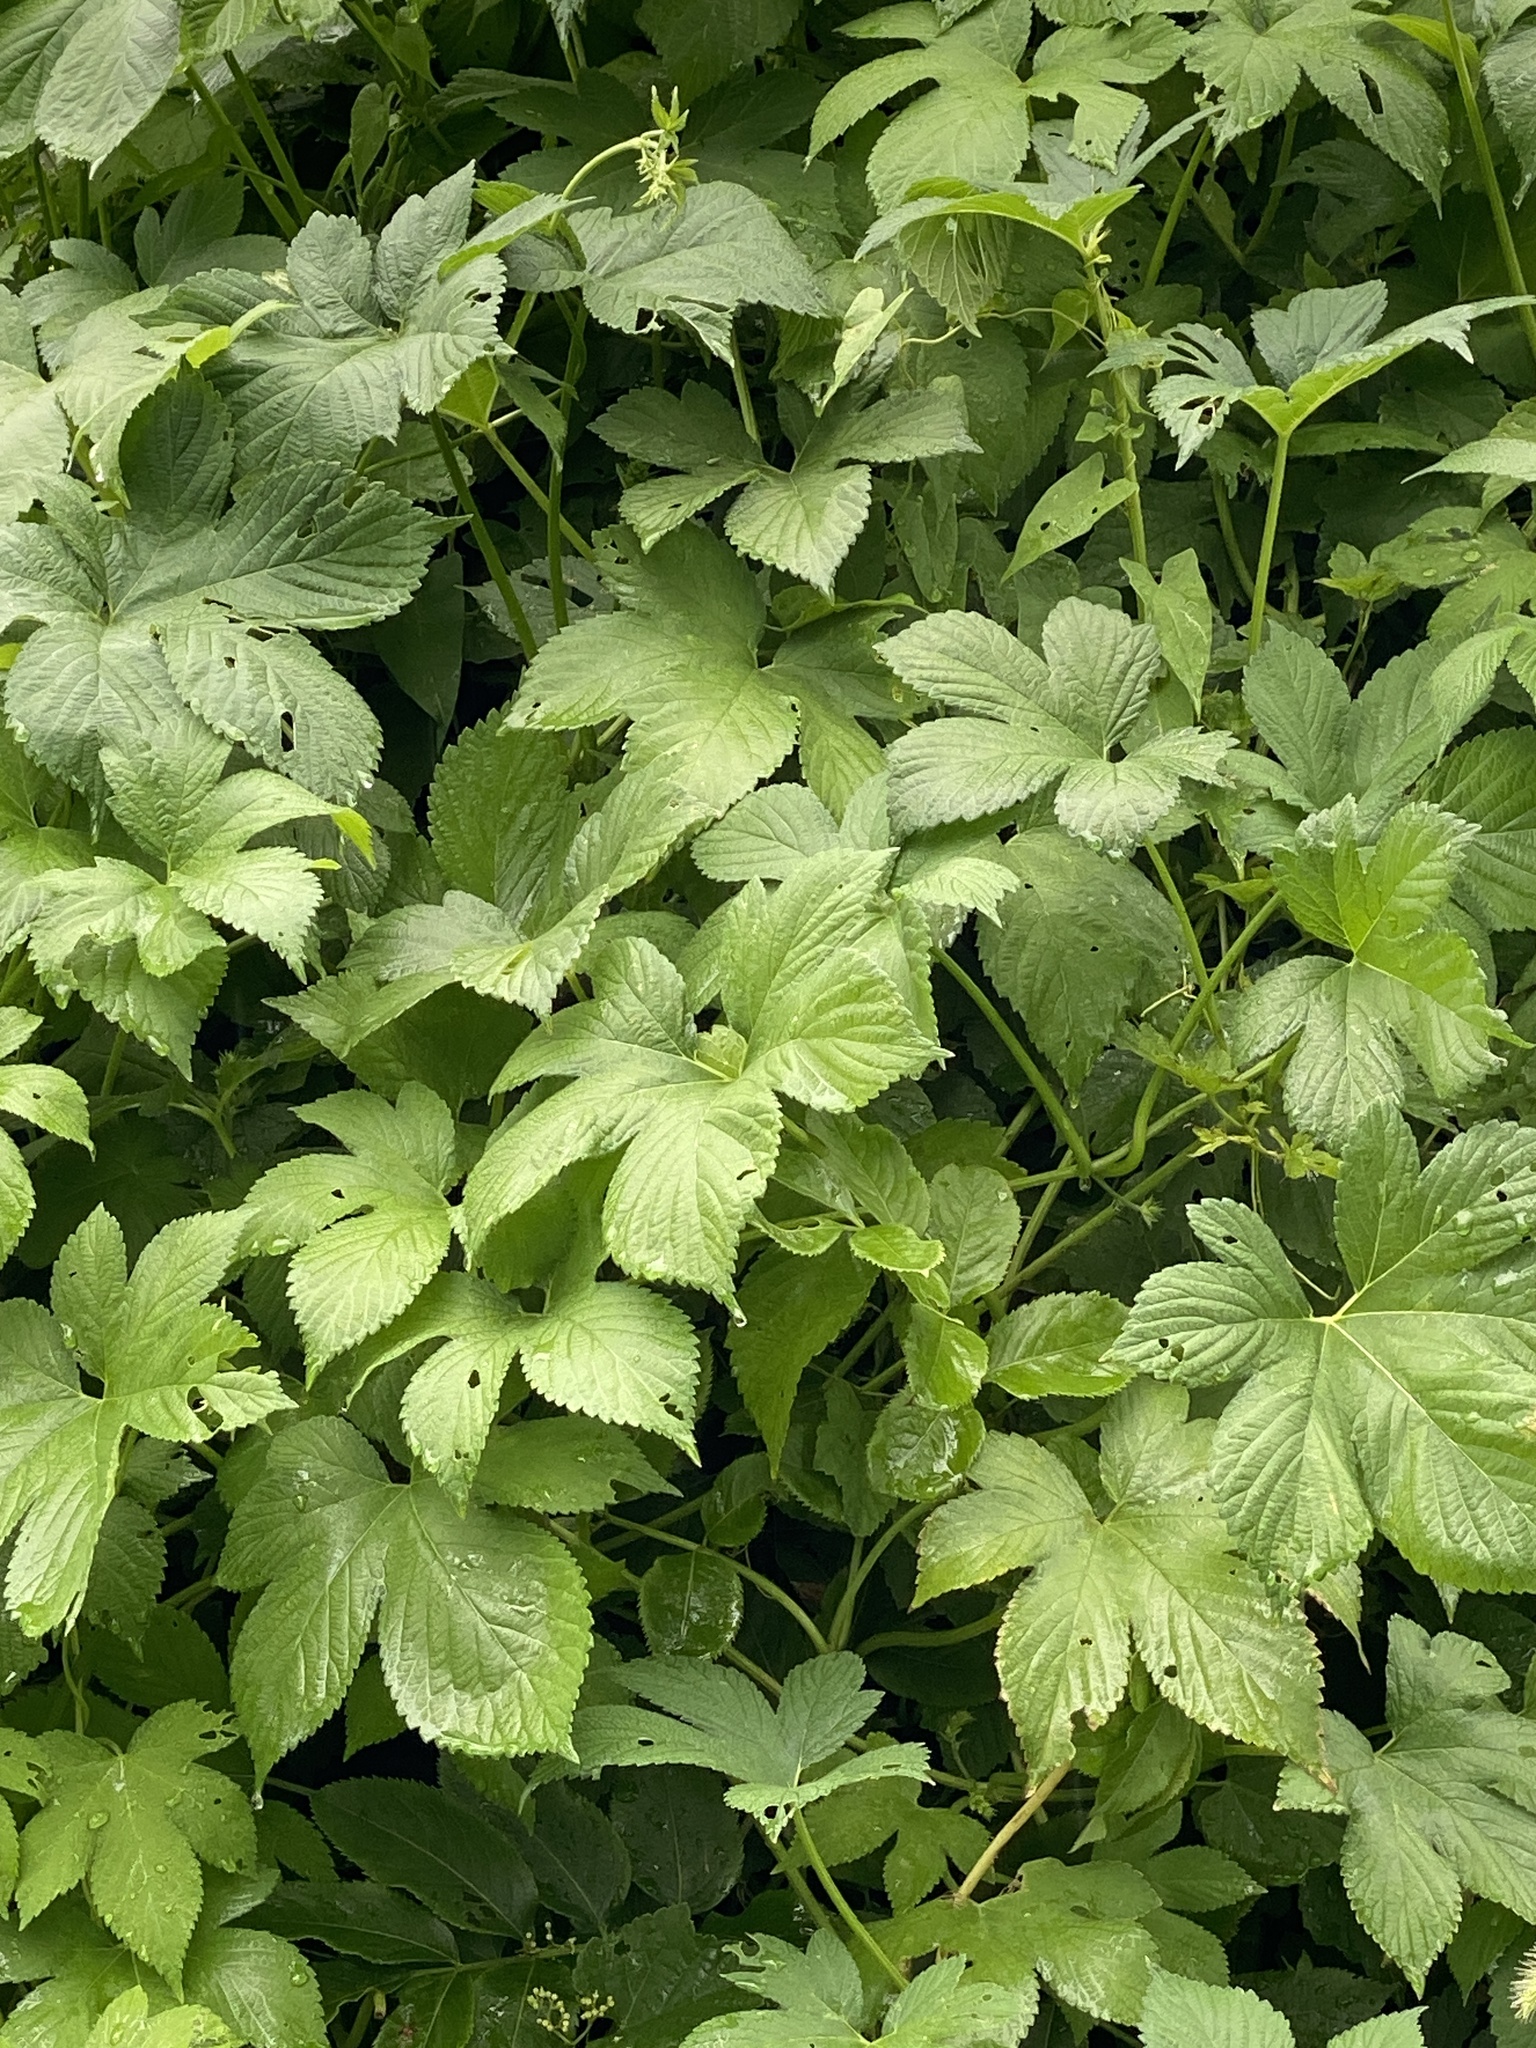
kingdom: Plantae
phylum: Tracheophyta
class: Magnoliopsida
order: Rosales
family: Cannabaceae
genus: Humulus
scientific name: Humulus scandens
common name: Japanese hop
